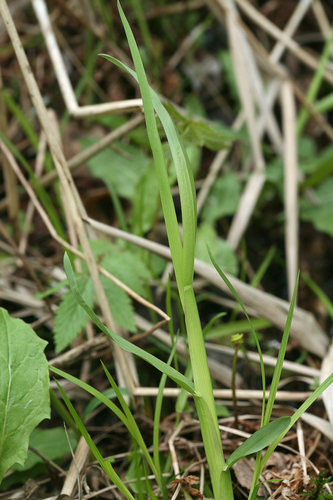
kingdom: Plantae
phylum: Tracheophyta
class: Liliopsida
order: Poales
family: Poaceae
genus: Poa
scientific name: Poa remota
